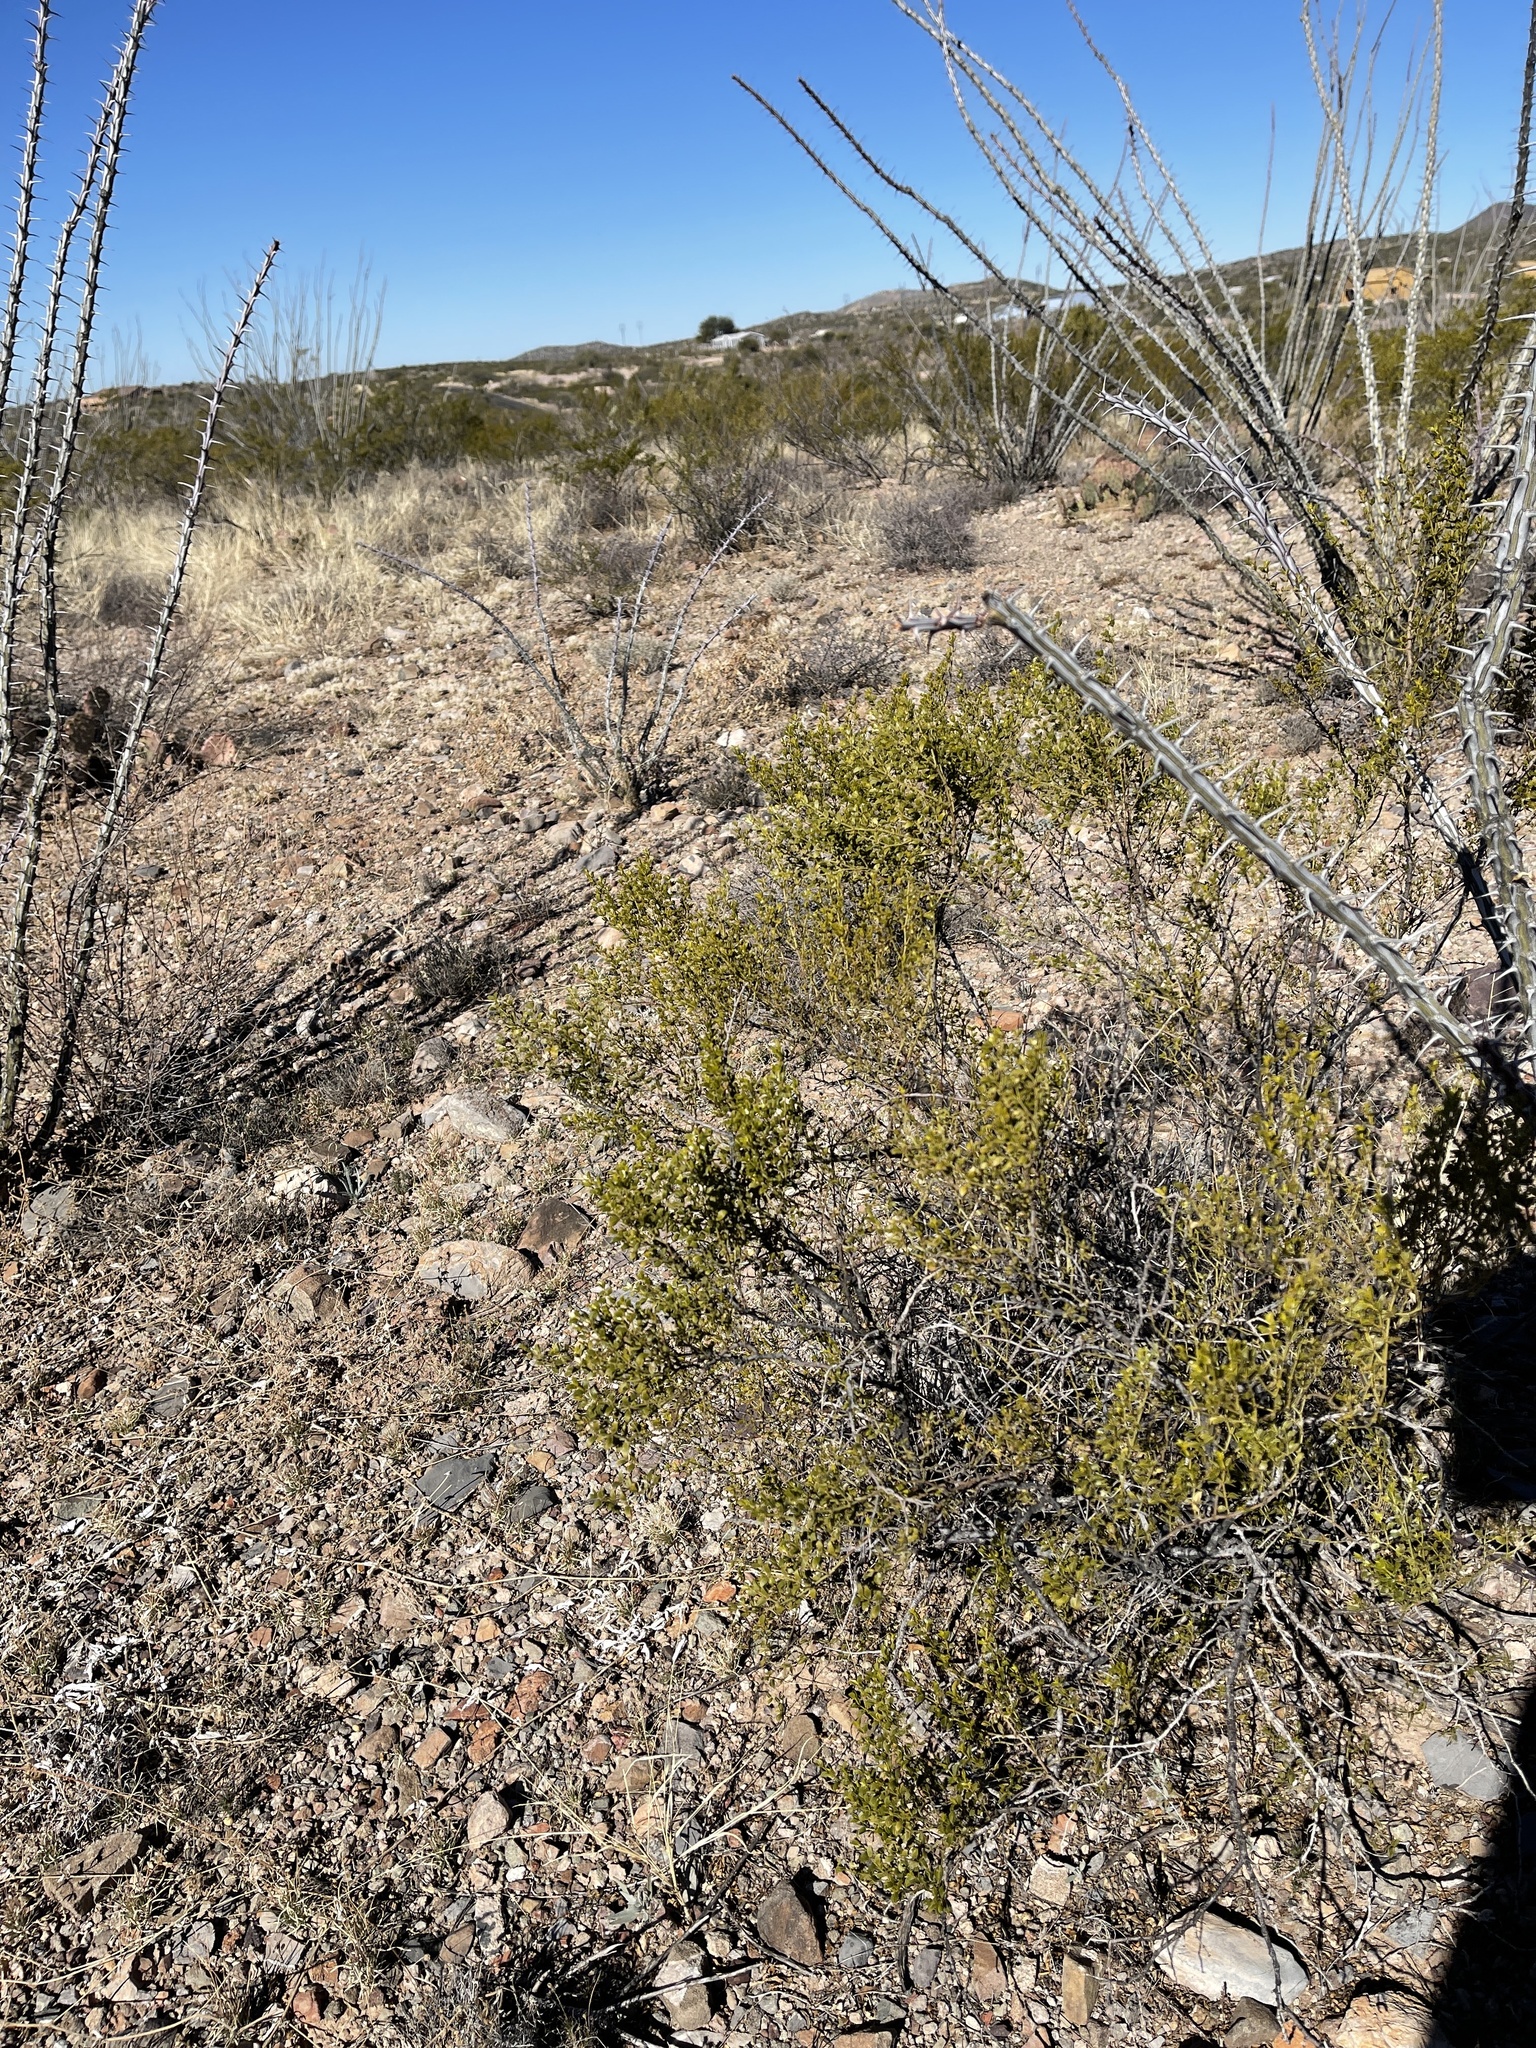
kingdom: Plantae
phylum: Tracheophyta
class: Magnoliopsida
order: Zygophyllales
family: Zygophyllaceae
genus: Larrea
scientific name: Larrea tridentata
